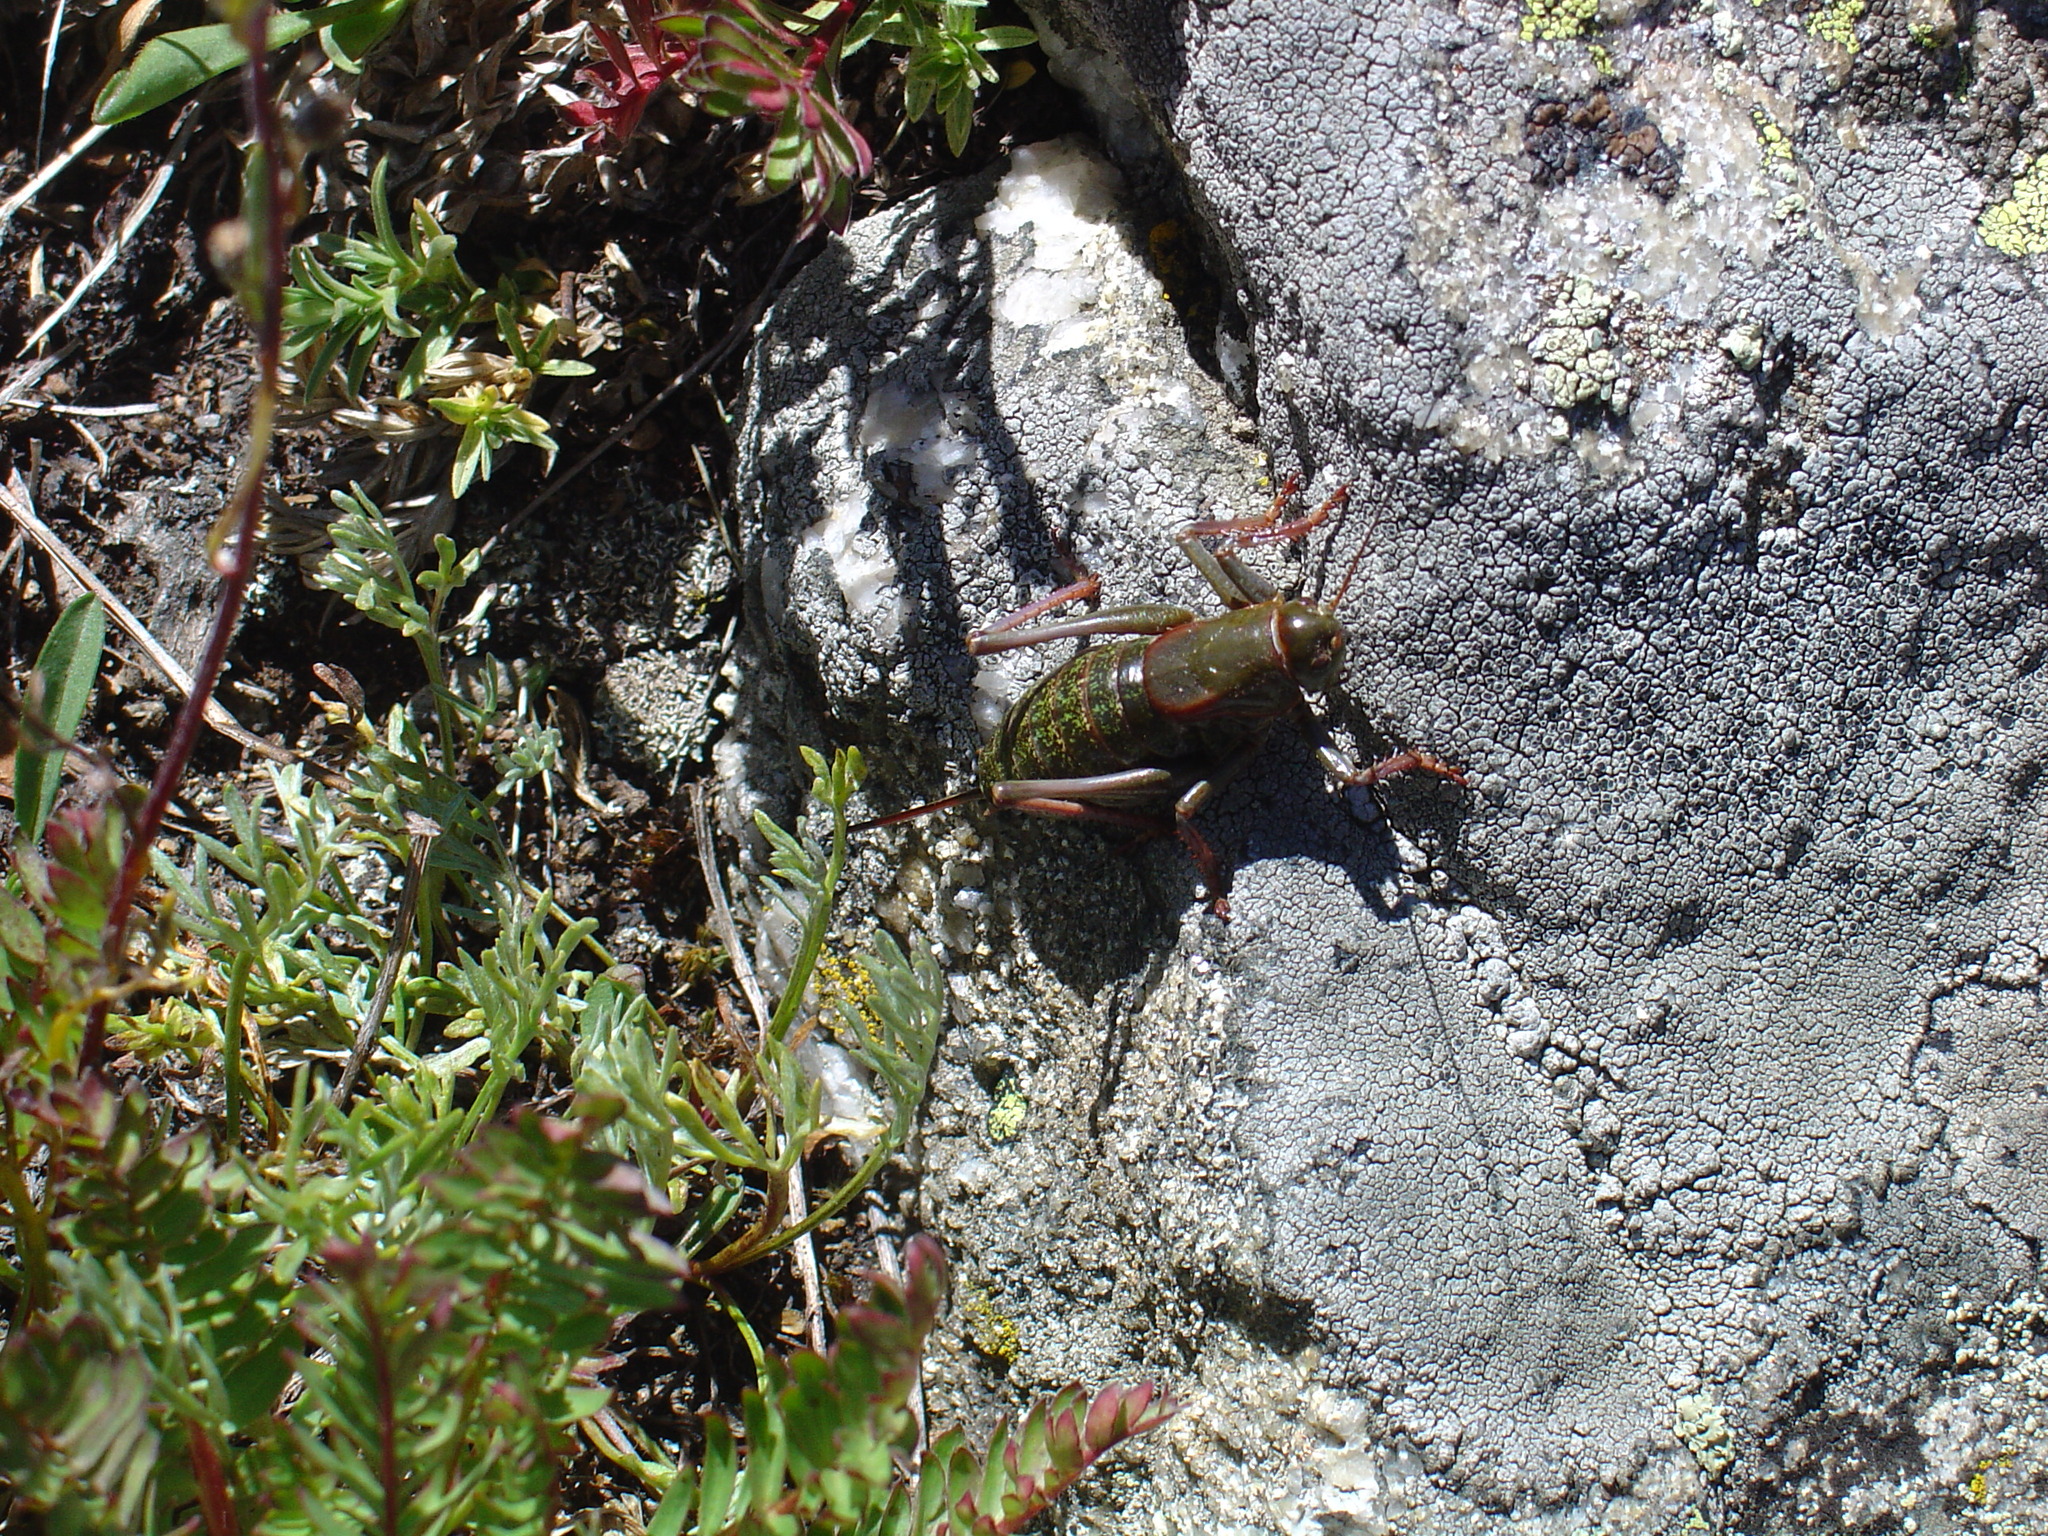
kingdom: Animalia
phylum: Arthropoda
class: Insecta
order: Orthoptera
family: Tettigoniidae
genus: Anabrus
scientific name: Anabrus simplex
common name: Mormon cricket
